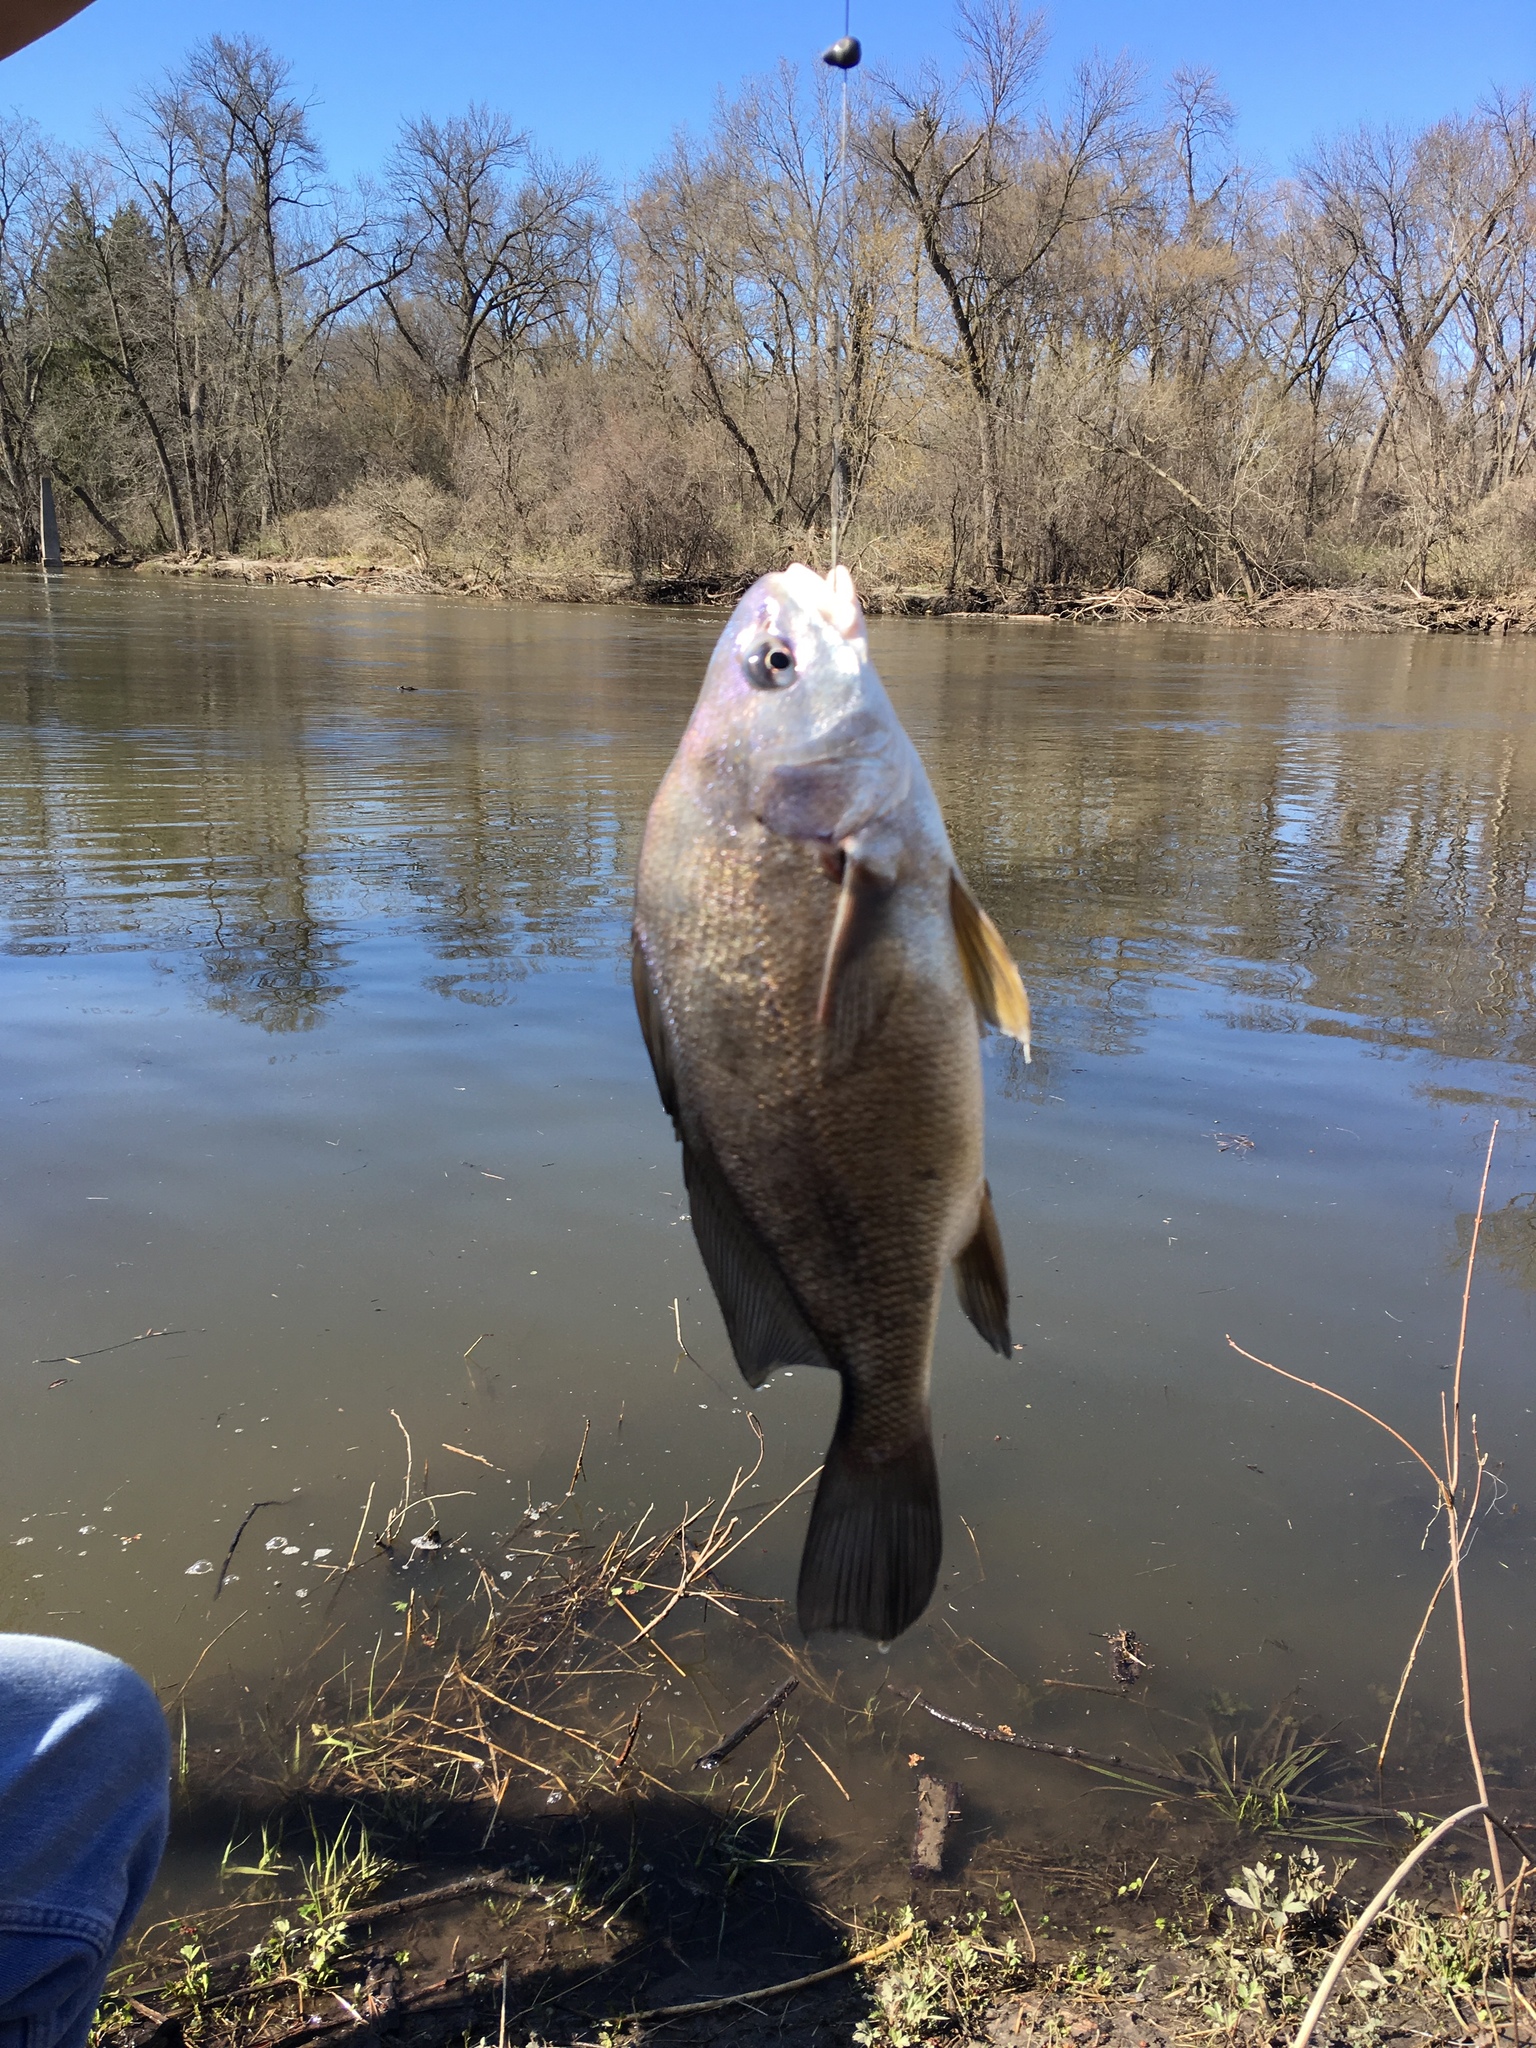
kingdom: Animalia
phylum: Chordata
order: Perciformes
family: Sciaenidae
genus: Aplodinotus
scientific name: Aplodinotus grunniens
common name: Freshwater drum
